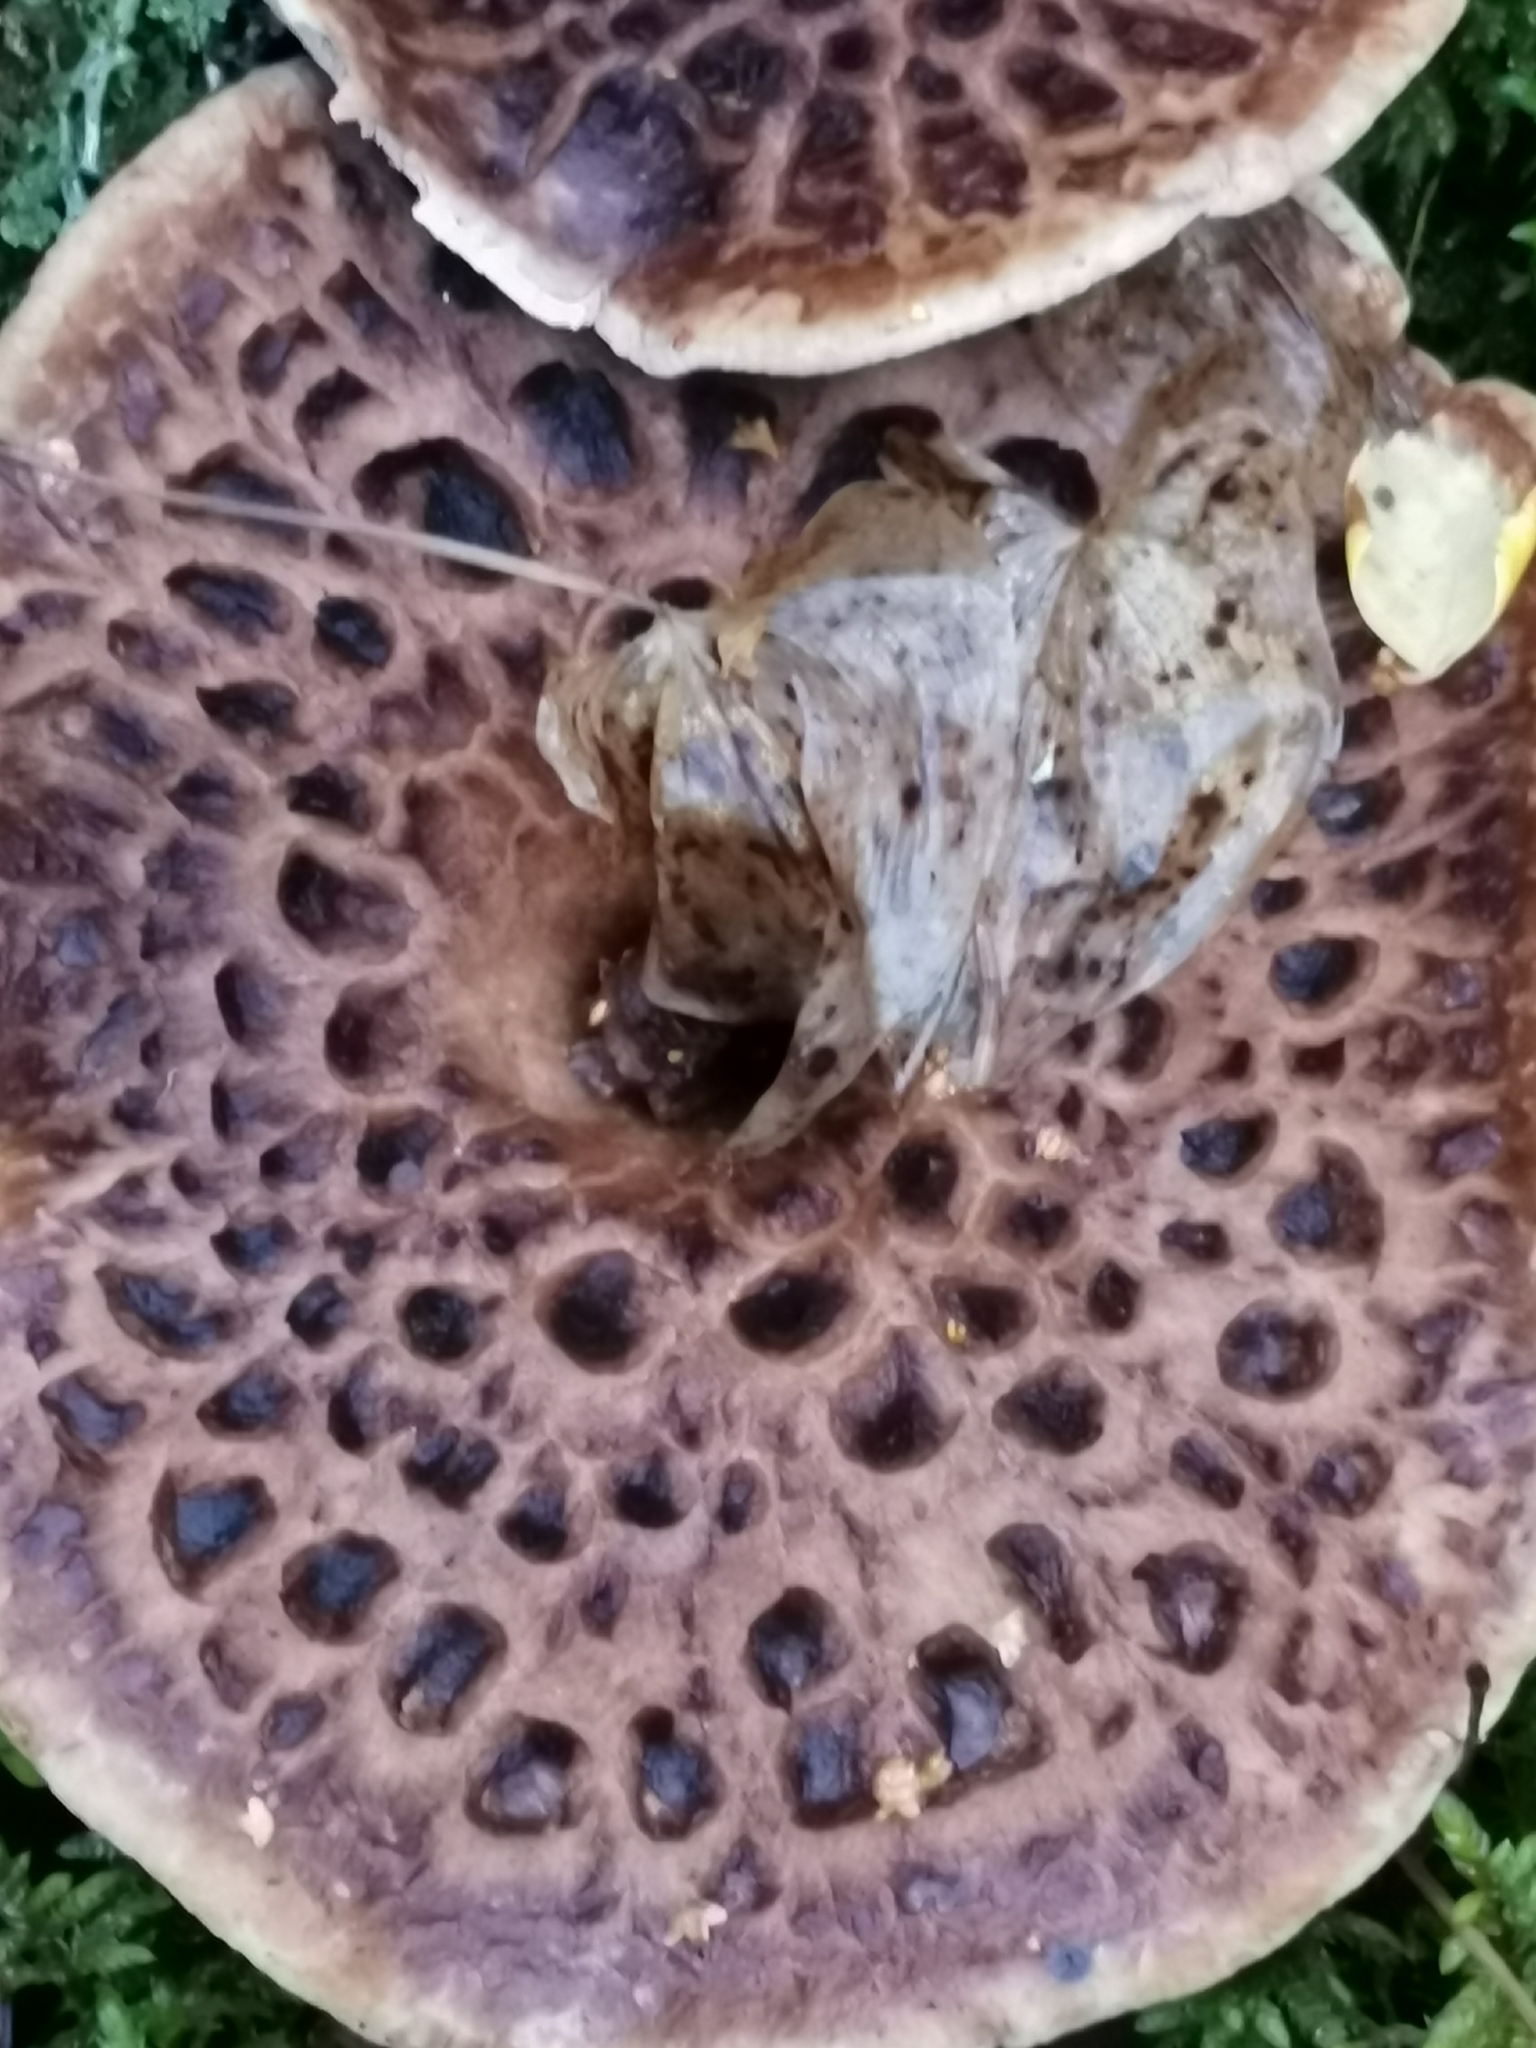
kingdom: Fungi
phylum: Basidiomycota
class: Agaricomycetes
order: Thelephorales
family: Bankeraceae
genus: Sarcodon
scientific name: Sarcodon imbricatus
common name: Shingled hedgehog
